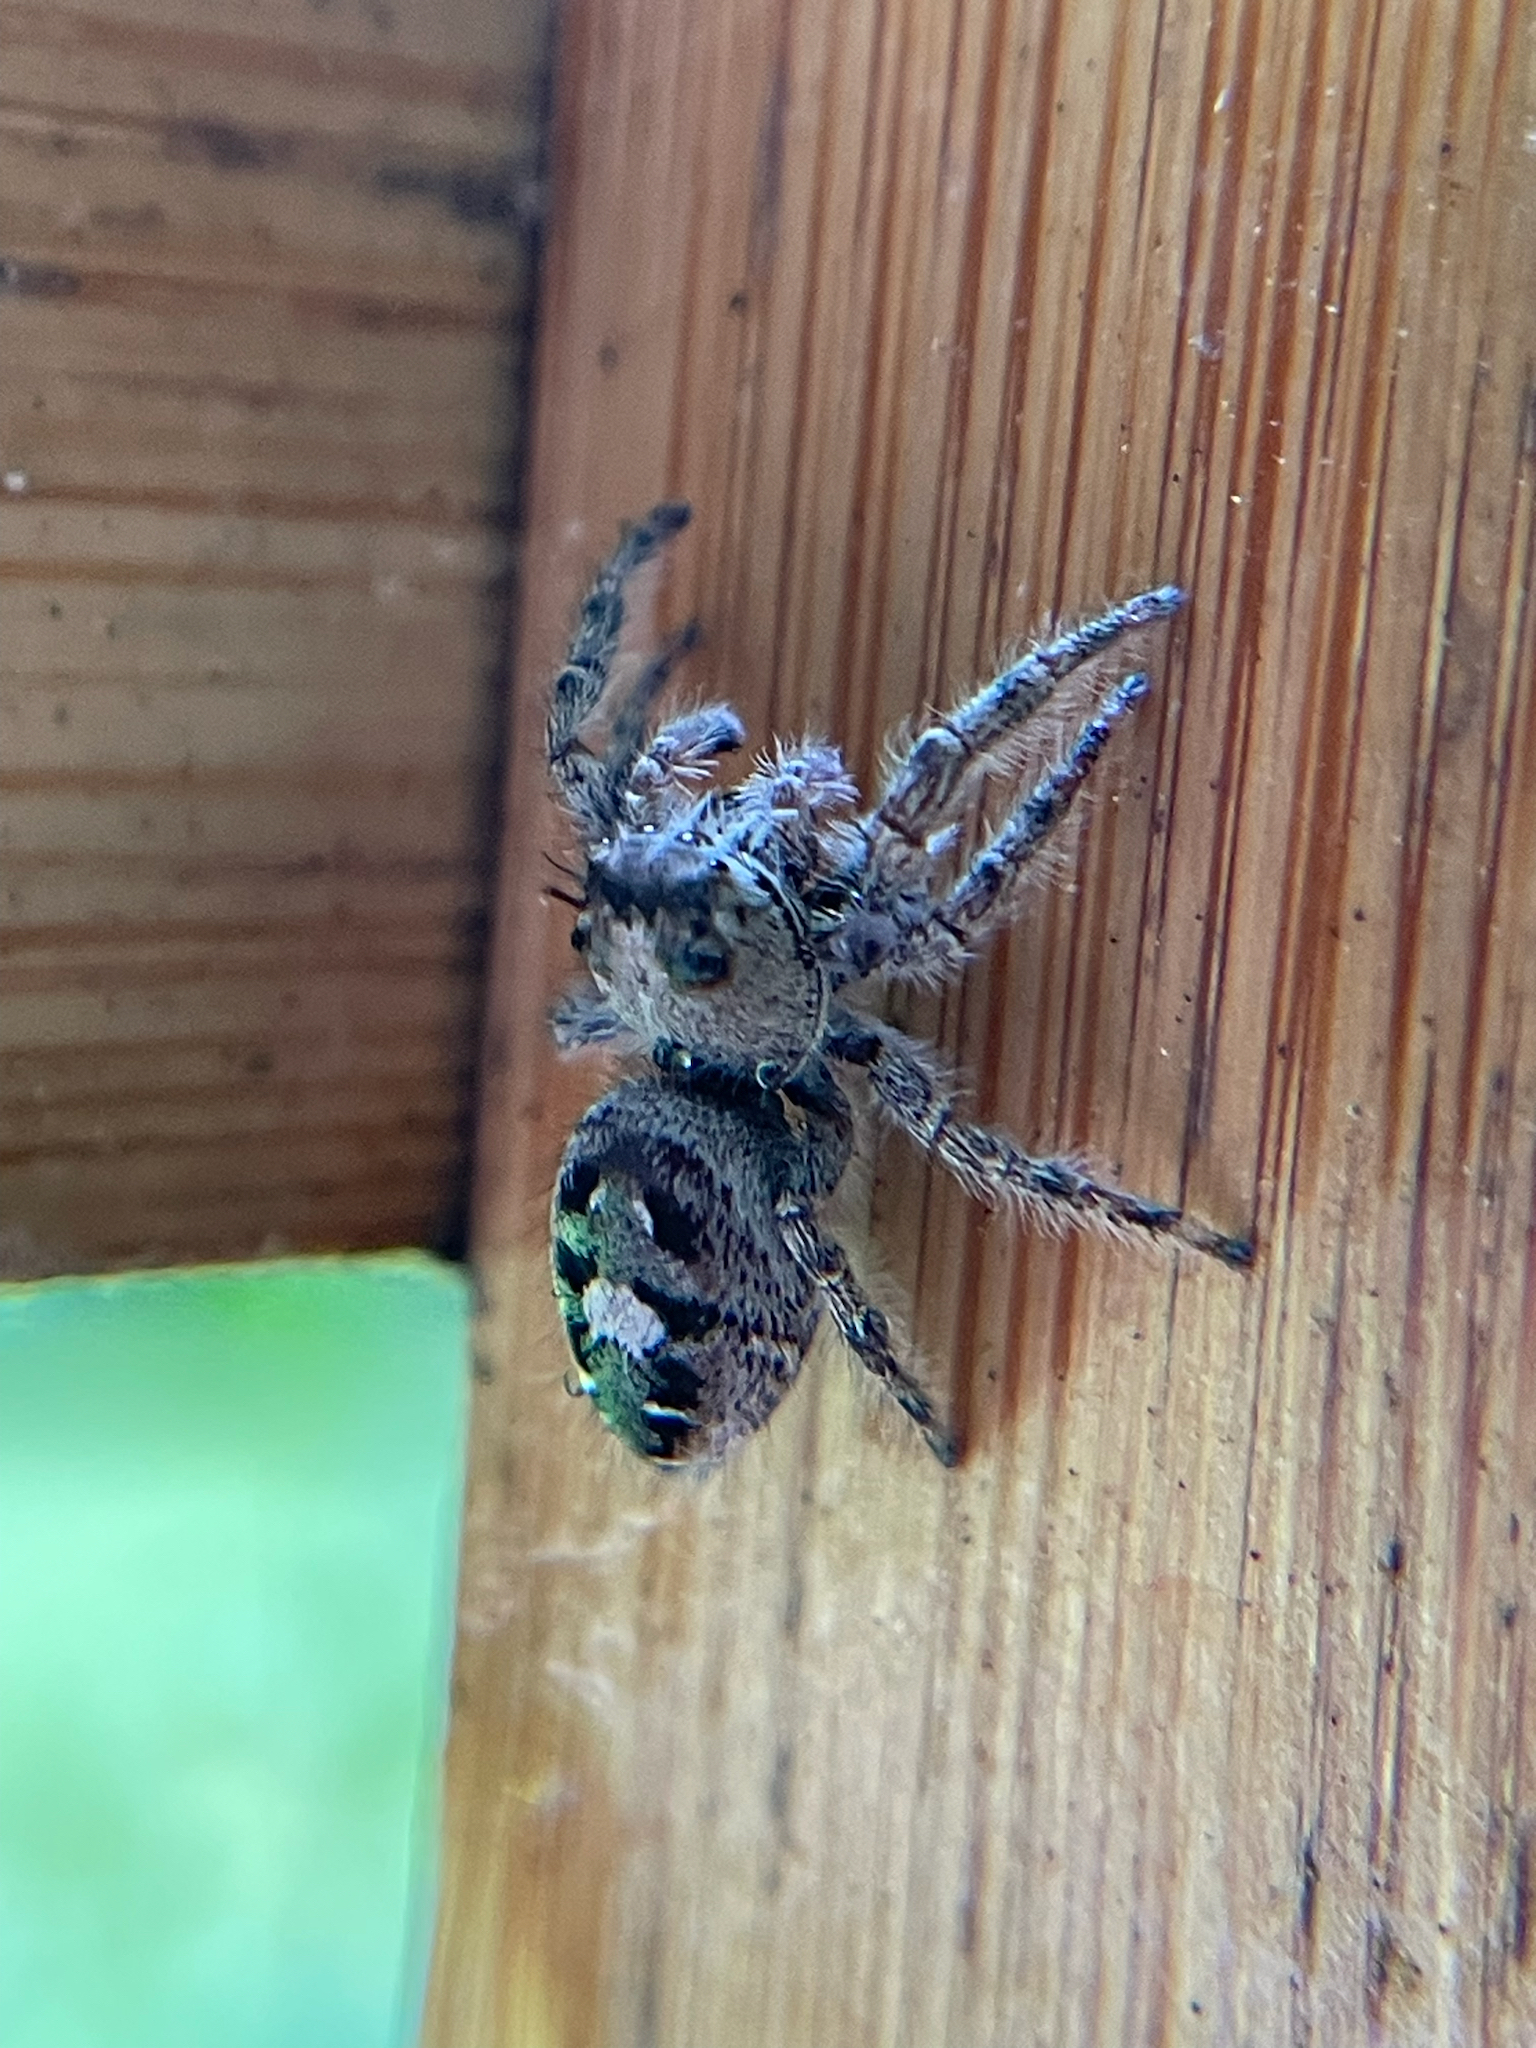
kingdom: Animalia
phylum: Arthropoda
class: Arachnida
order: Araneae
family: Salticidae
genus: Phidippus
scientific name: Phidippus putnami
